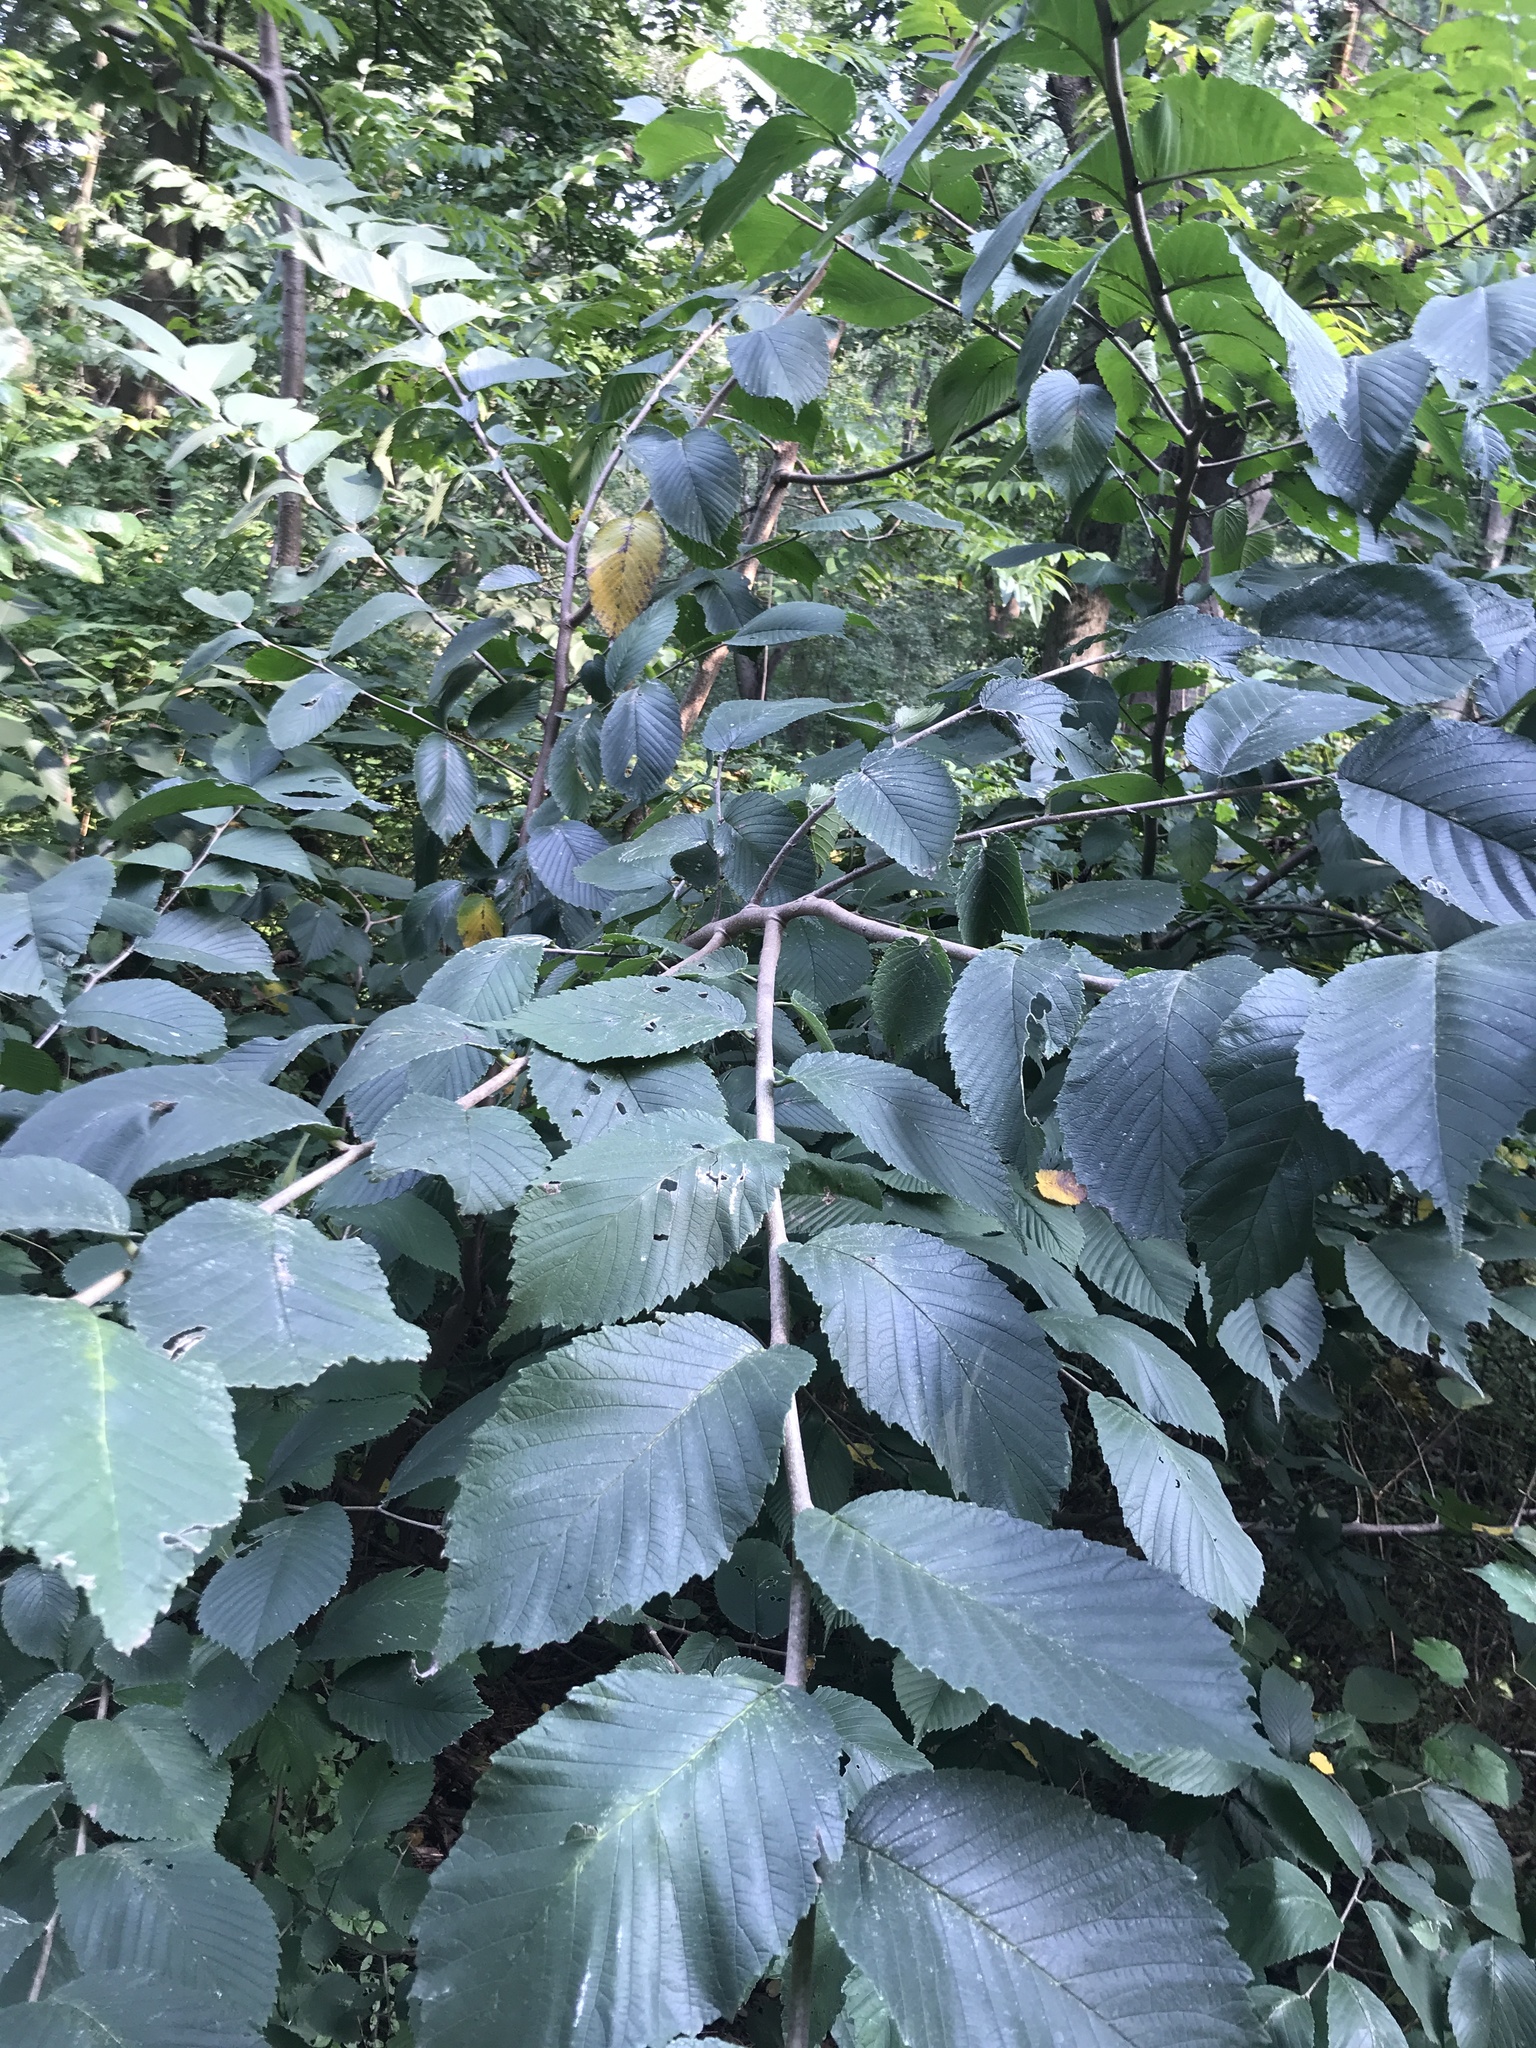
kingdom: Plantae
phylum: Tracheophyta
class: Magnoliopsida
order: Rosales
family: Ulmaceae
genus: Ulmus
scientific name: Ulmus rubra
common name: Slippery elm
